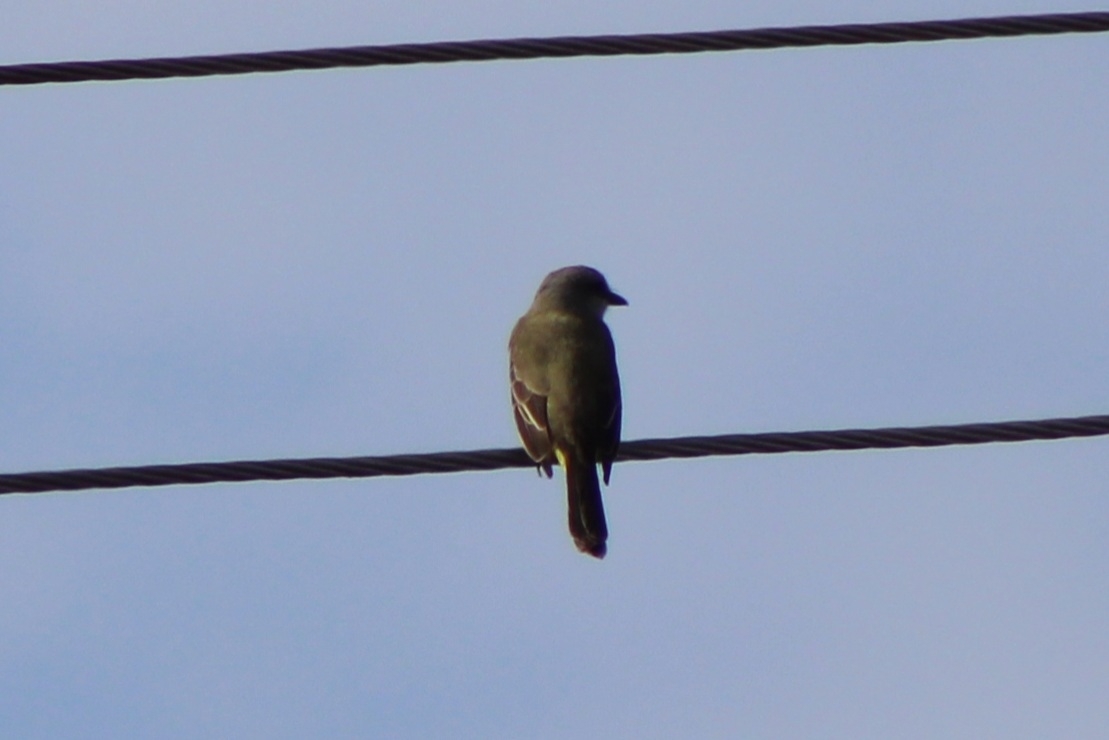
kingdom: Animalia
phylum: Chordata
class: Aves
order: Passeriformes
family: Tyrannidae
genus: Tyrannus
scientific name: Tyrannus melancholicus
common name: Tropical kingbird
